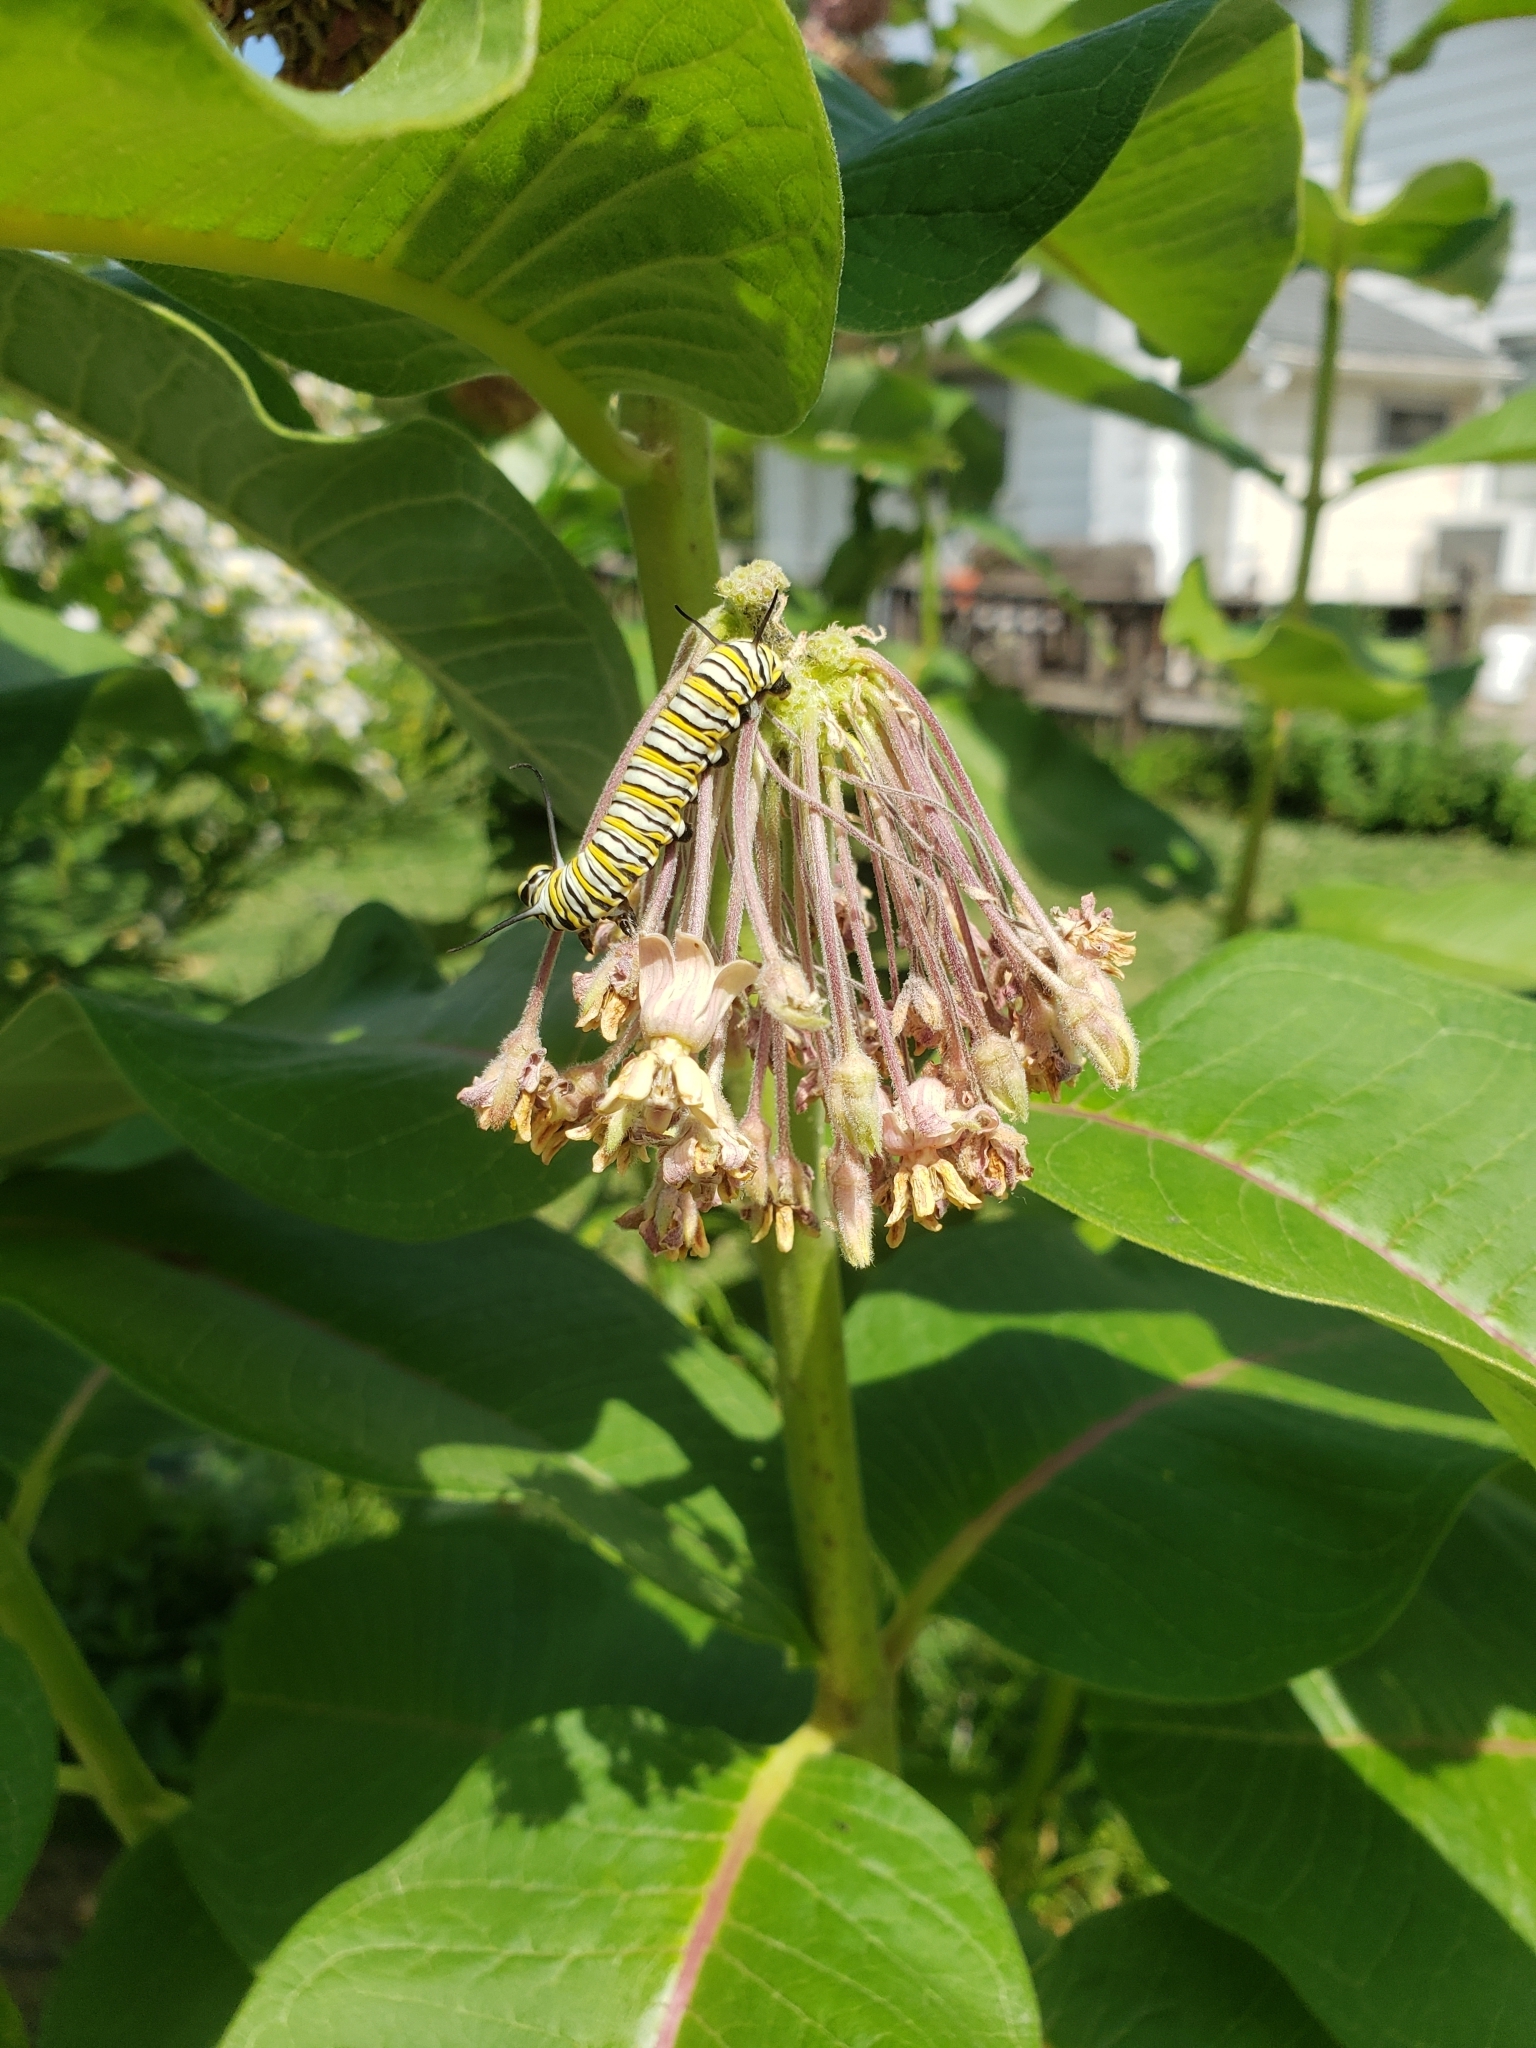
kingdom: Animalia
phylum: Arthropoda
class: Insecta
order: Lepidoptera
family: Nymphalidae
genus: Danaus
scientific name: Danaus plexippus
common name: Monarch
